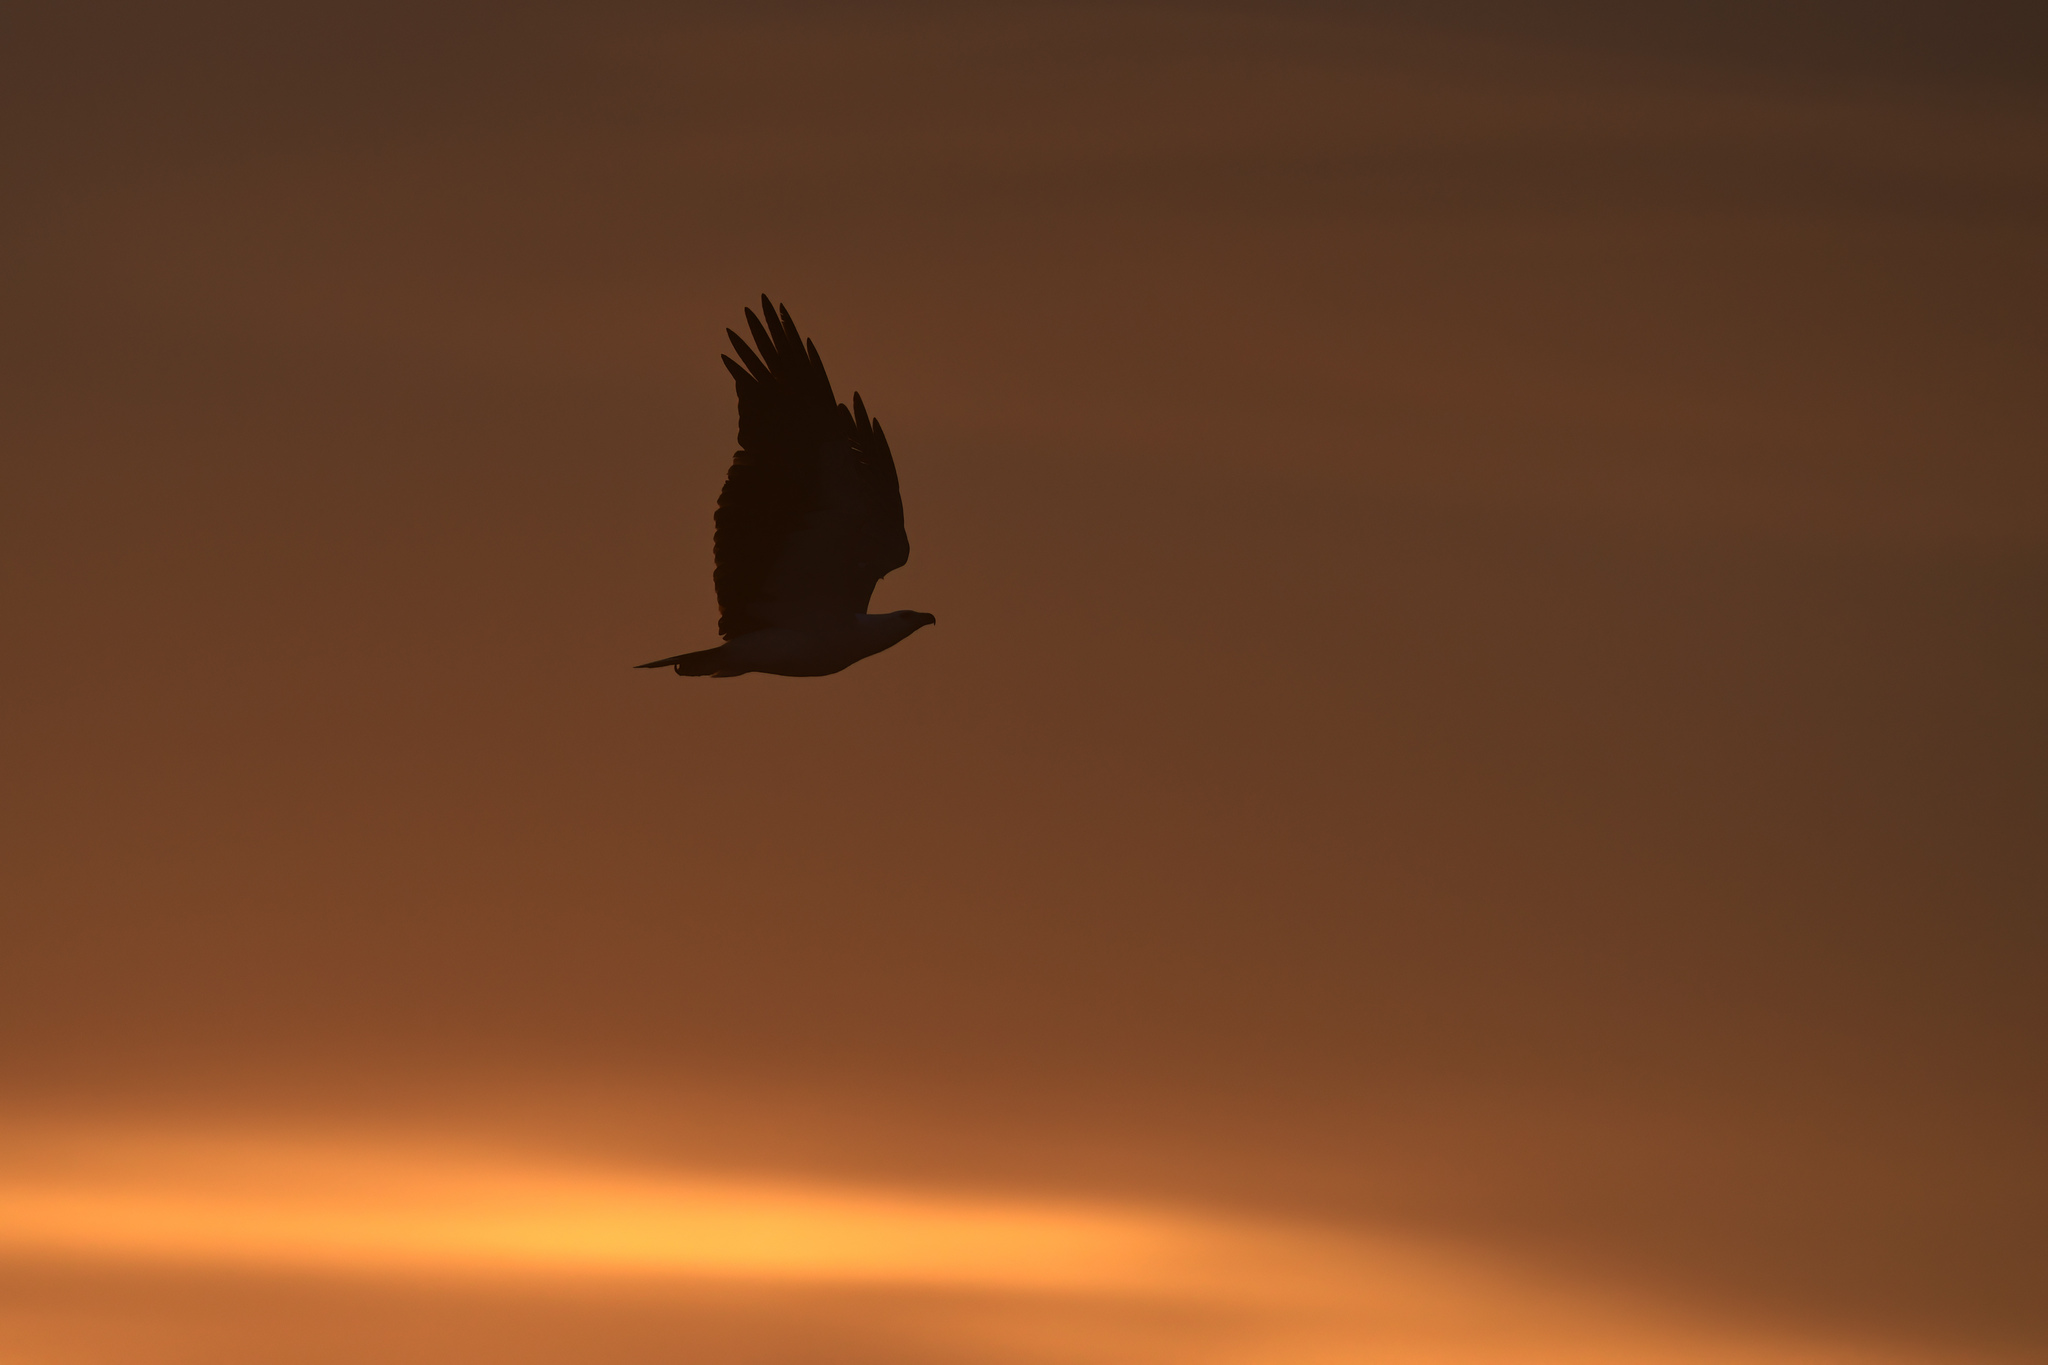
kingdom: Animalia
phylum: Chordata
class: Aves
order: Accipitriformes
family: Accipitridae
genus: Haliaeetus
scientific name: Haliaeetus leucogaster
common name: White-bellied sea eagle
